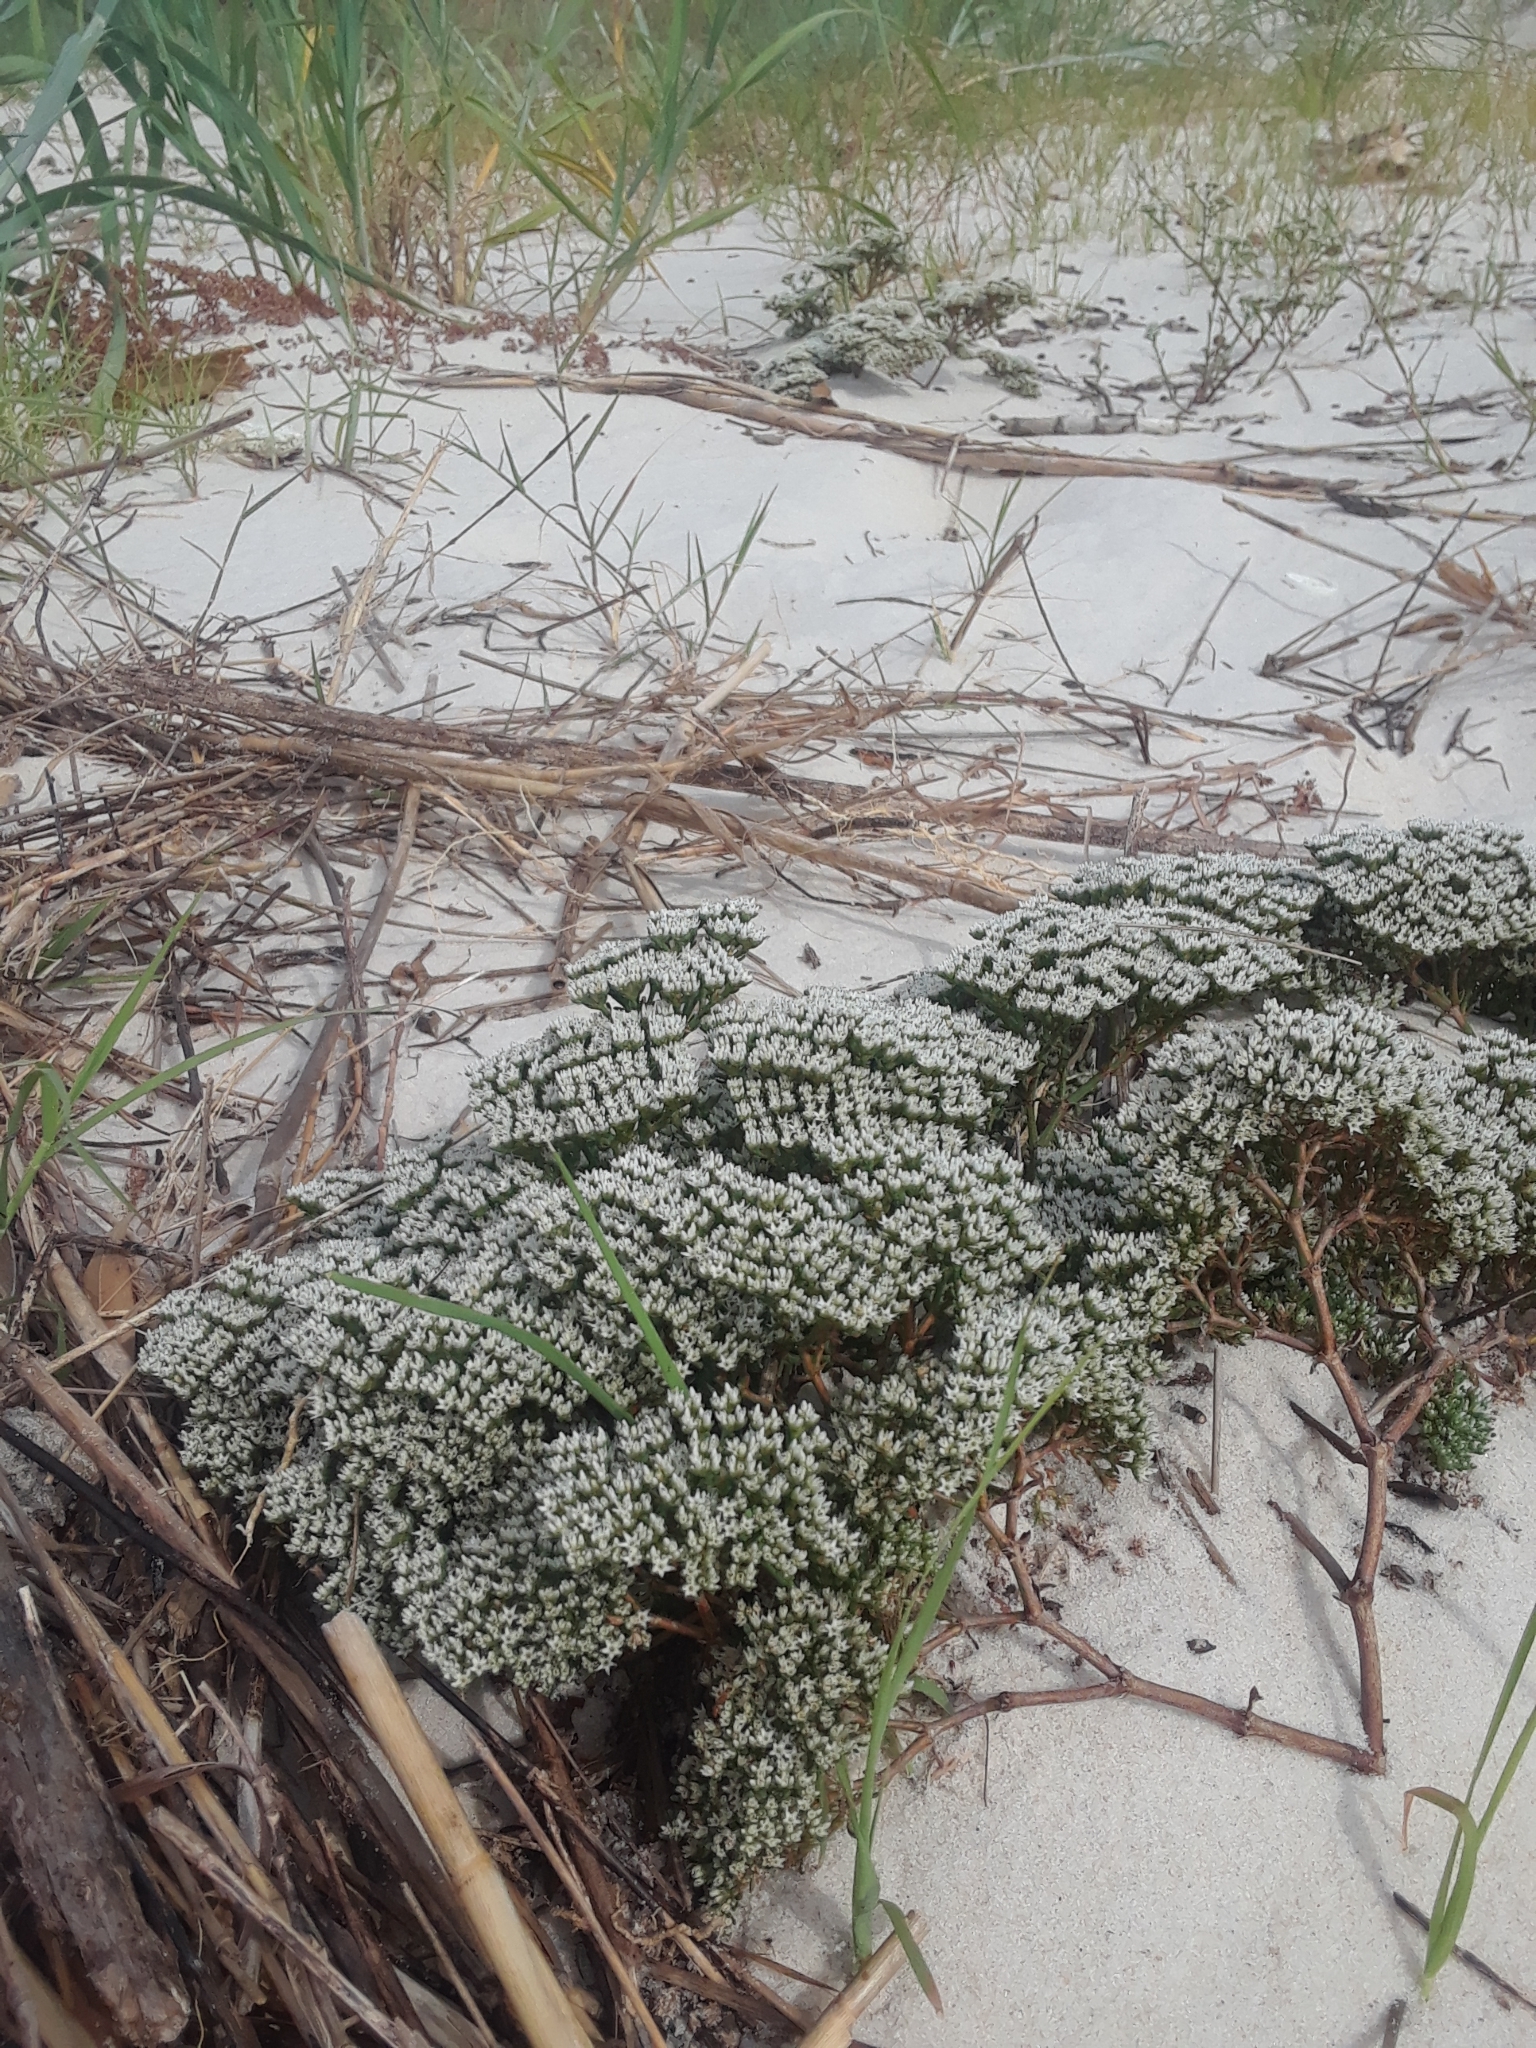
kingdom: Plantae
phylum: Tracheophyta
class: Magnoliopsida
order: Caryophyllales
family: Caryophyllaceae
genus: Paronychia
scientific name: Paronychia erecta
